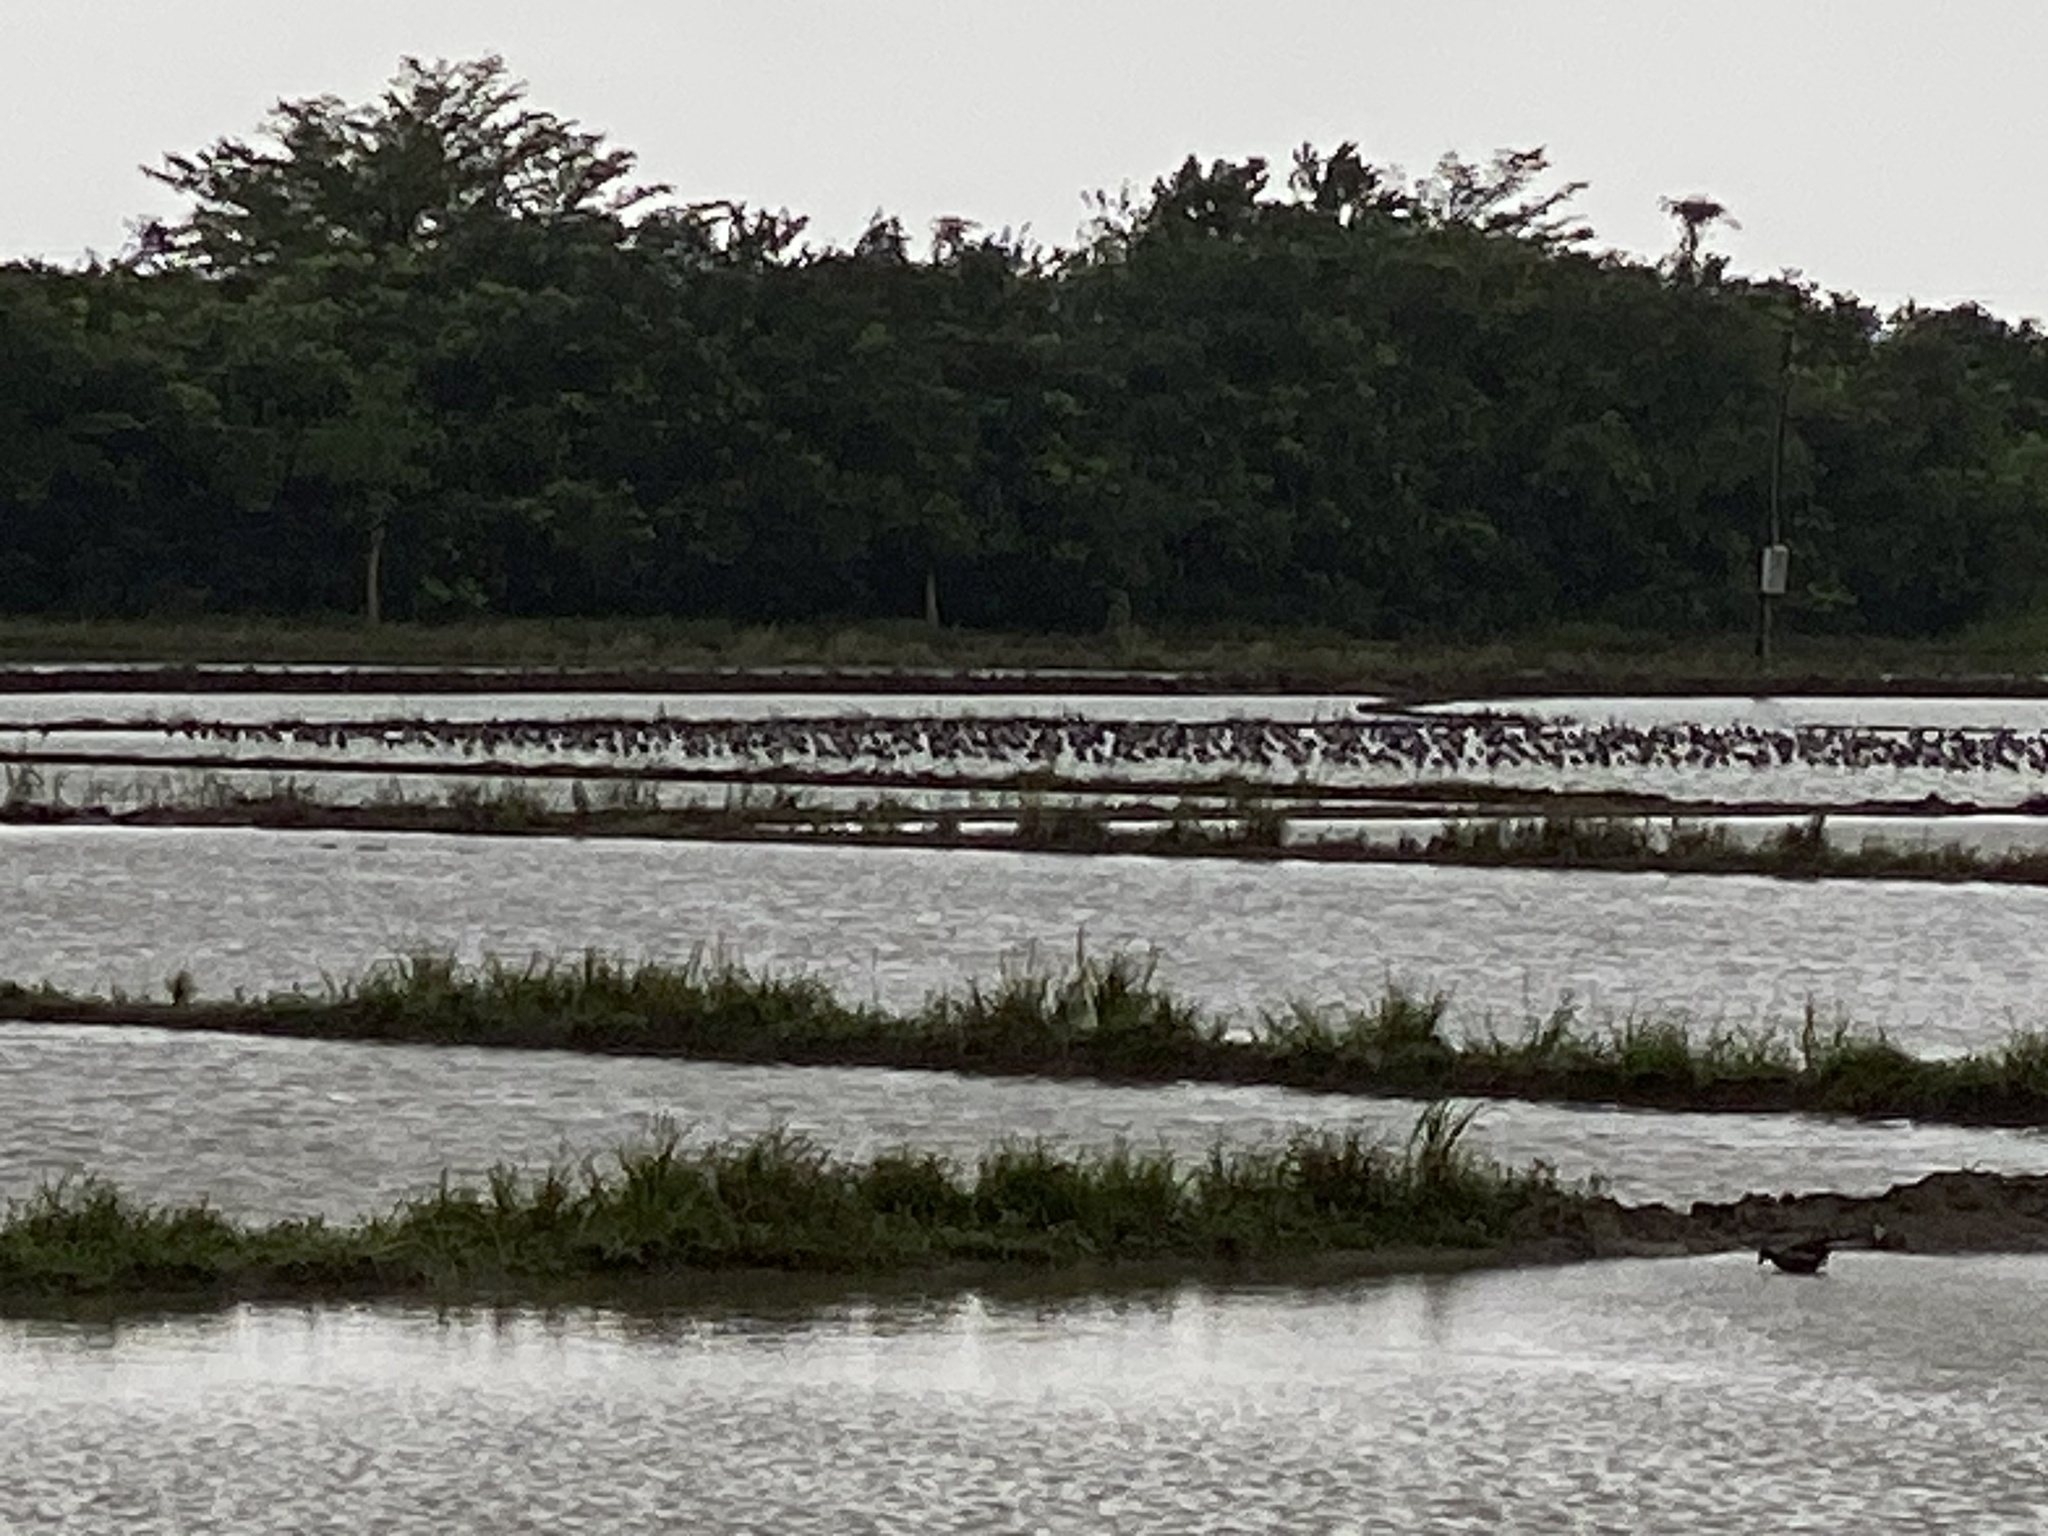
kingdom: Animalia
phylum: Chordata
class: Aves
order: Charadriiformes
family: Recurvirostridae
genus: Himantopus
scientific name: Himantopus himantopus
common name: Black-winged stilt
